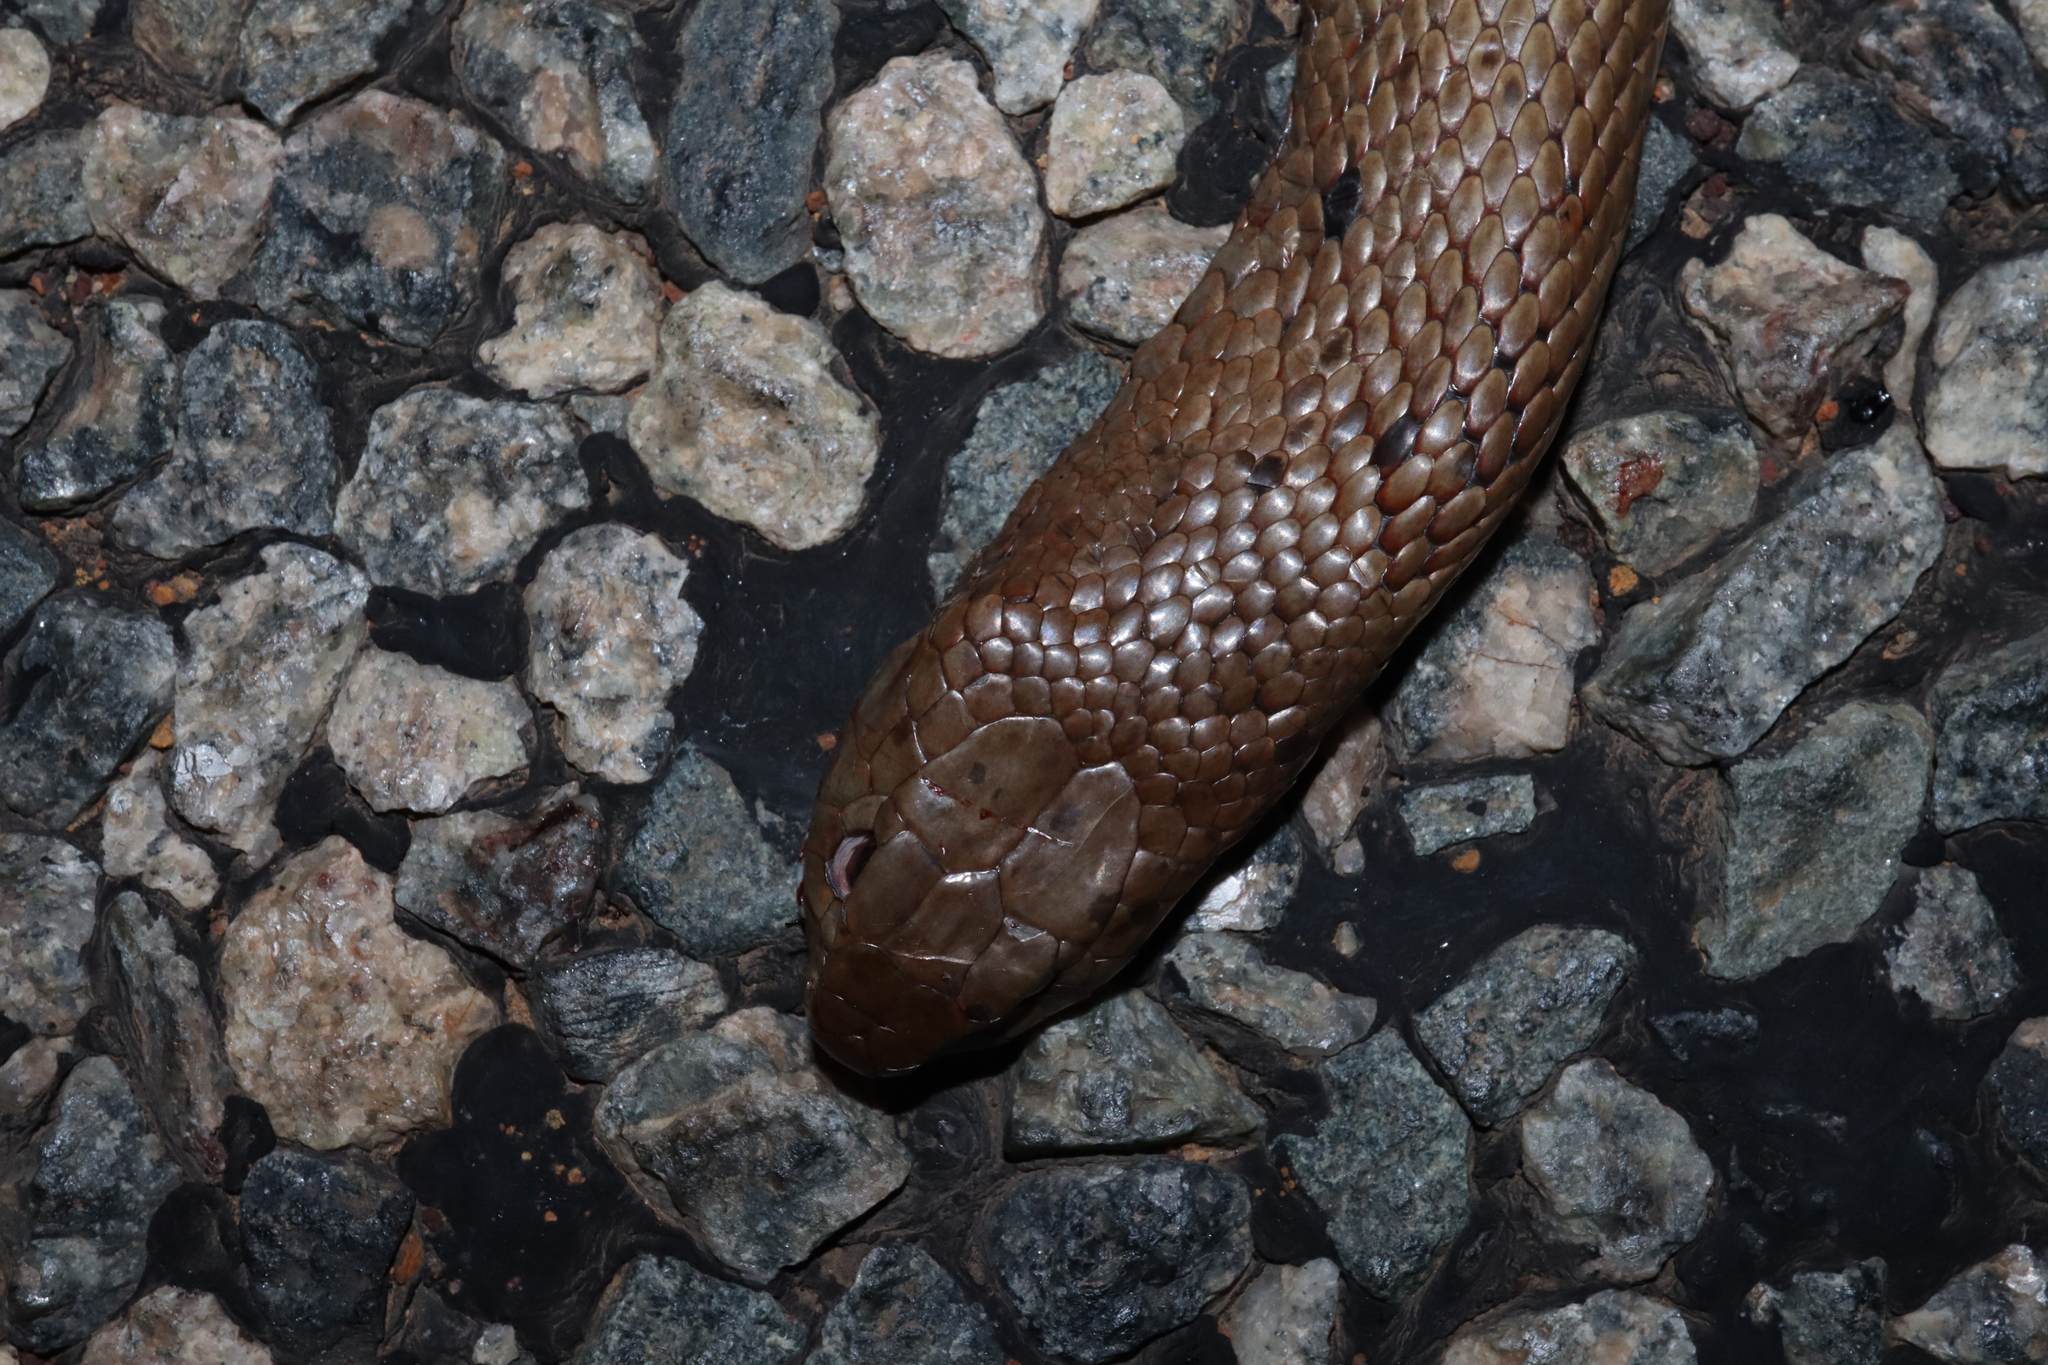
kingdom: Animalia
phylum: Chordata
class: Squamata
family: Elapidae
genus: Pseudonaja
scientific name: Pseudonaja affinis
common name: Dugite
